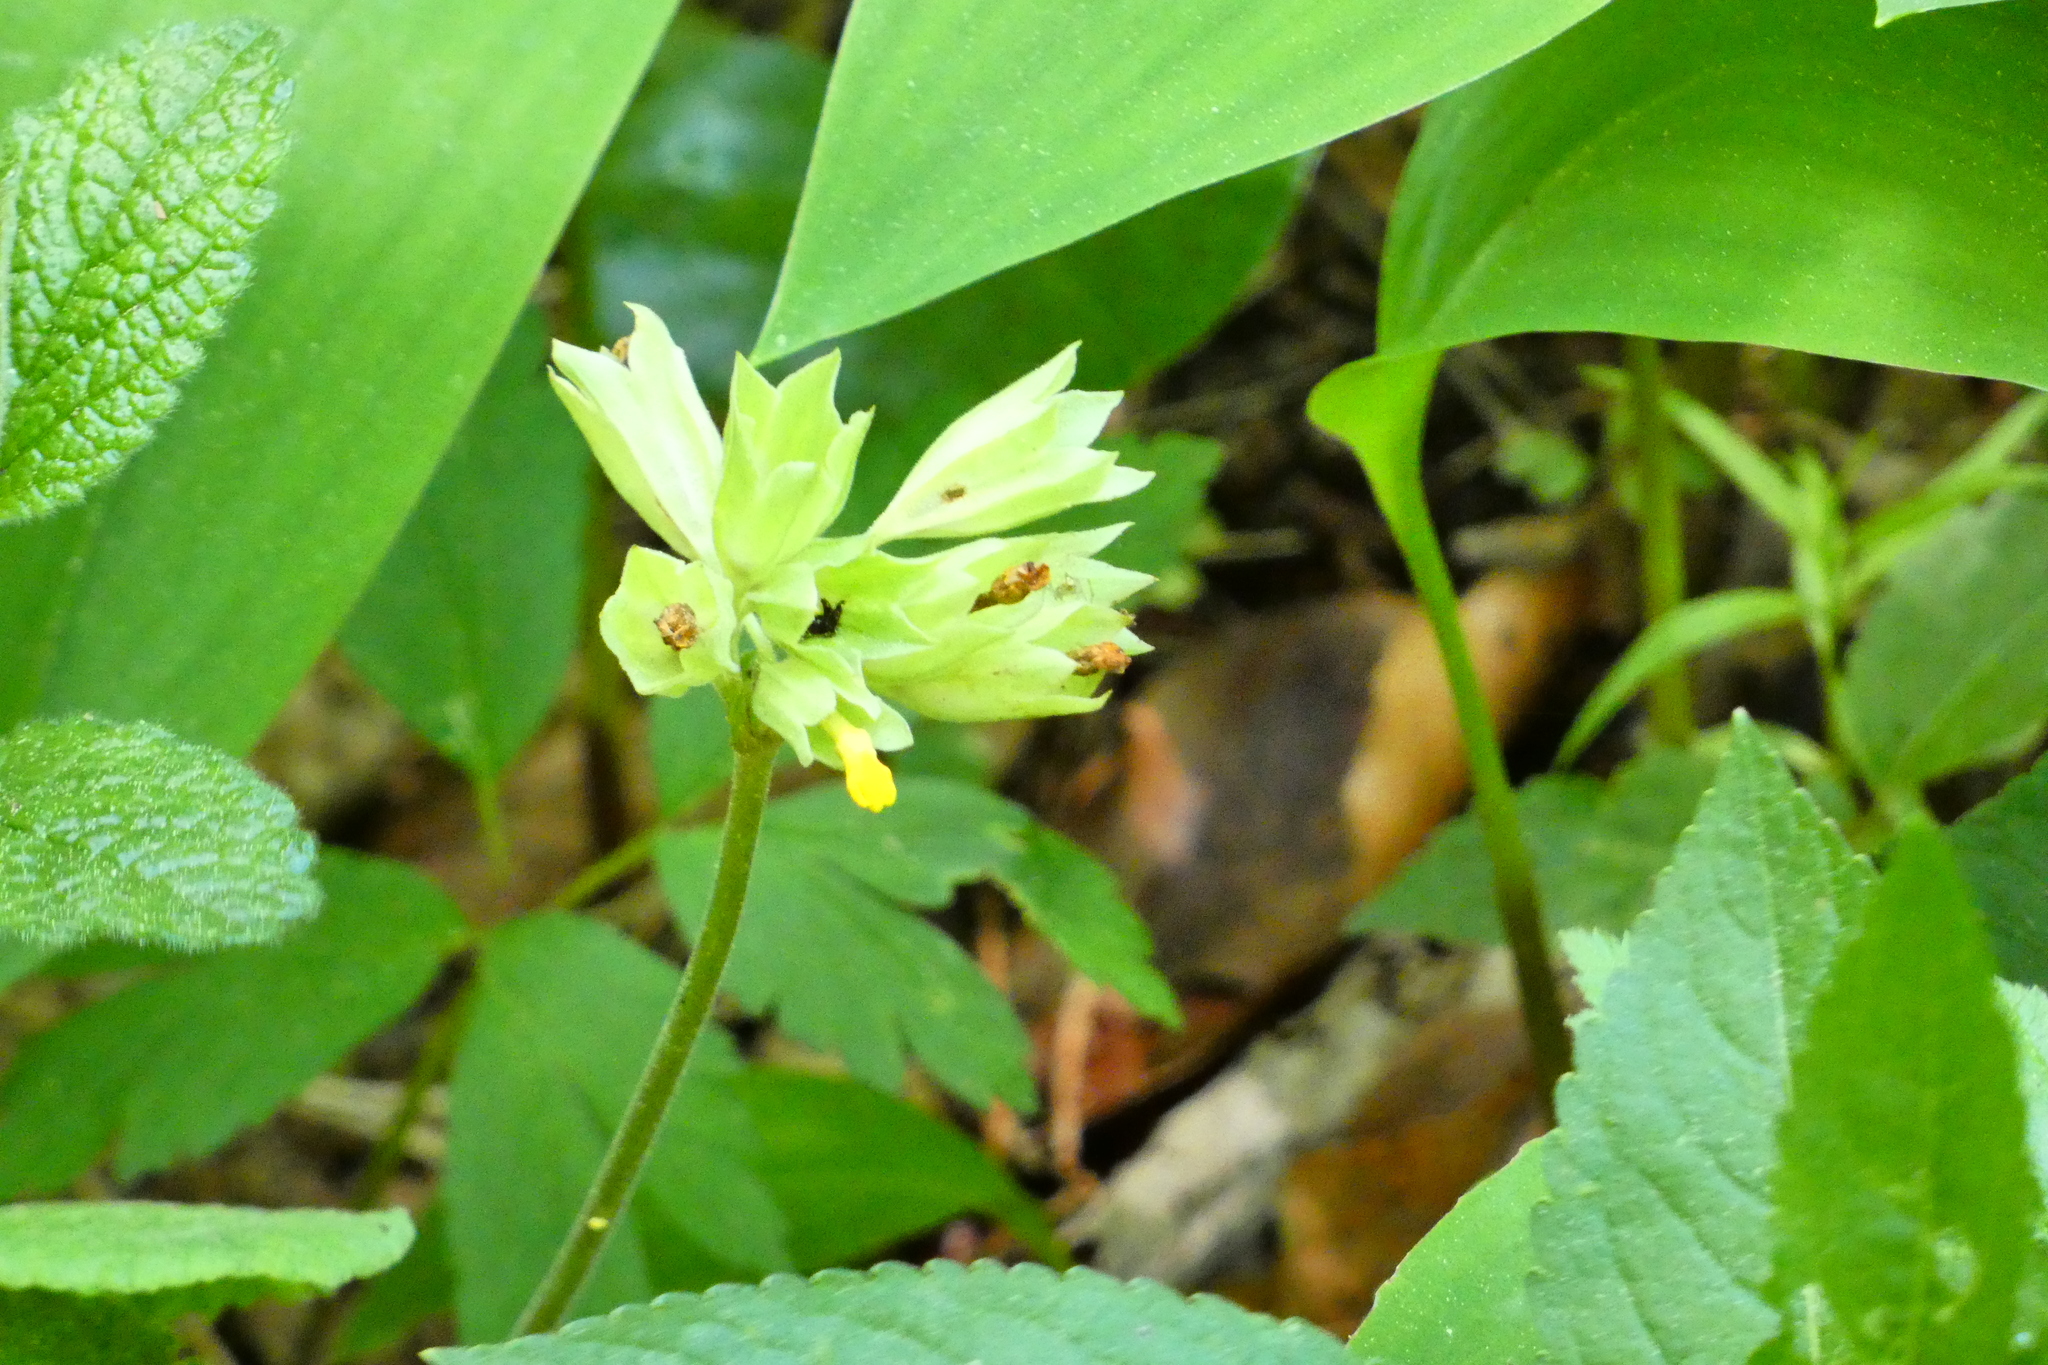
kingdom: Plantae
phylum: Tracheophyta
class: Magnoliopsida
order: Ericales
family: Primulaceae
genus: Primula
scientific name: Primula veris
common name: Cowslip
